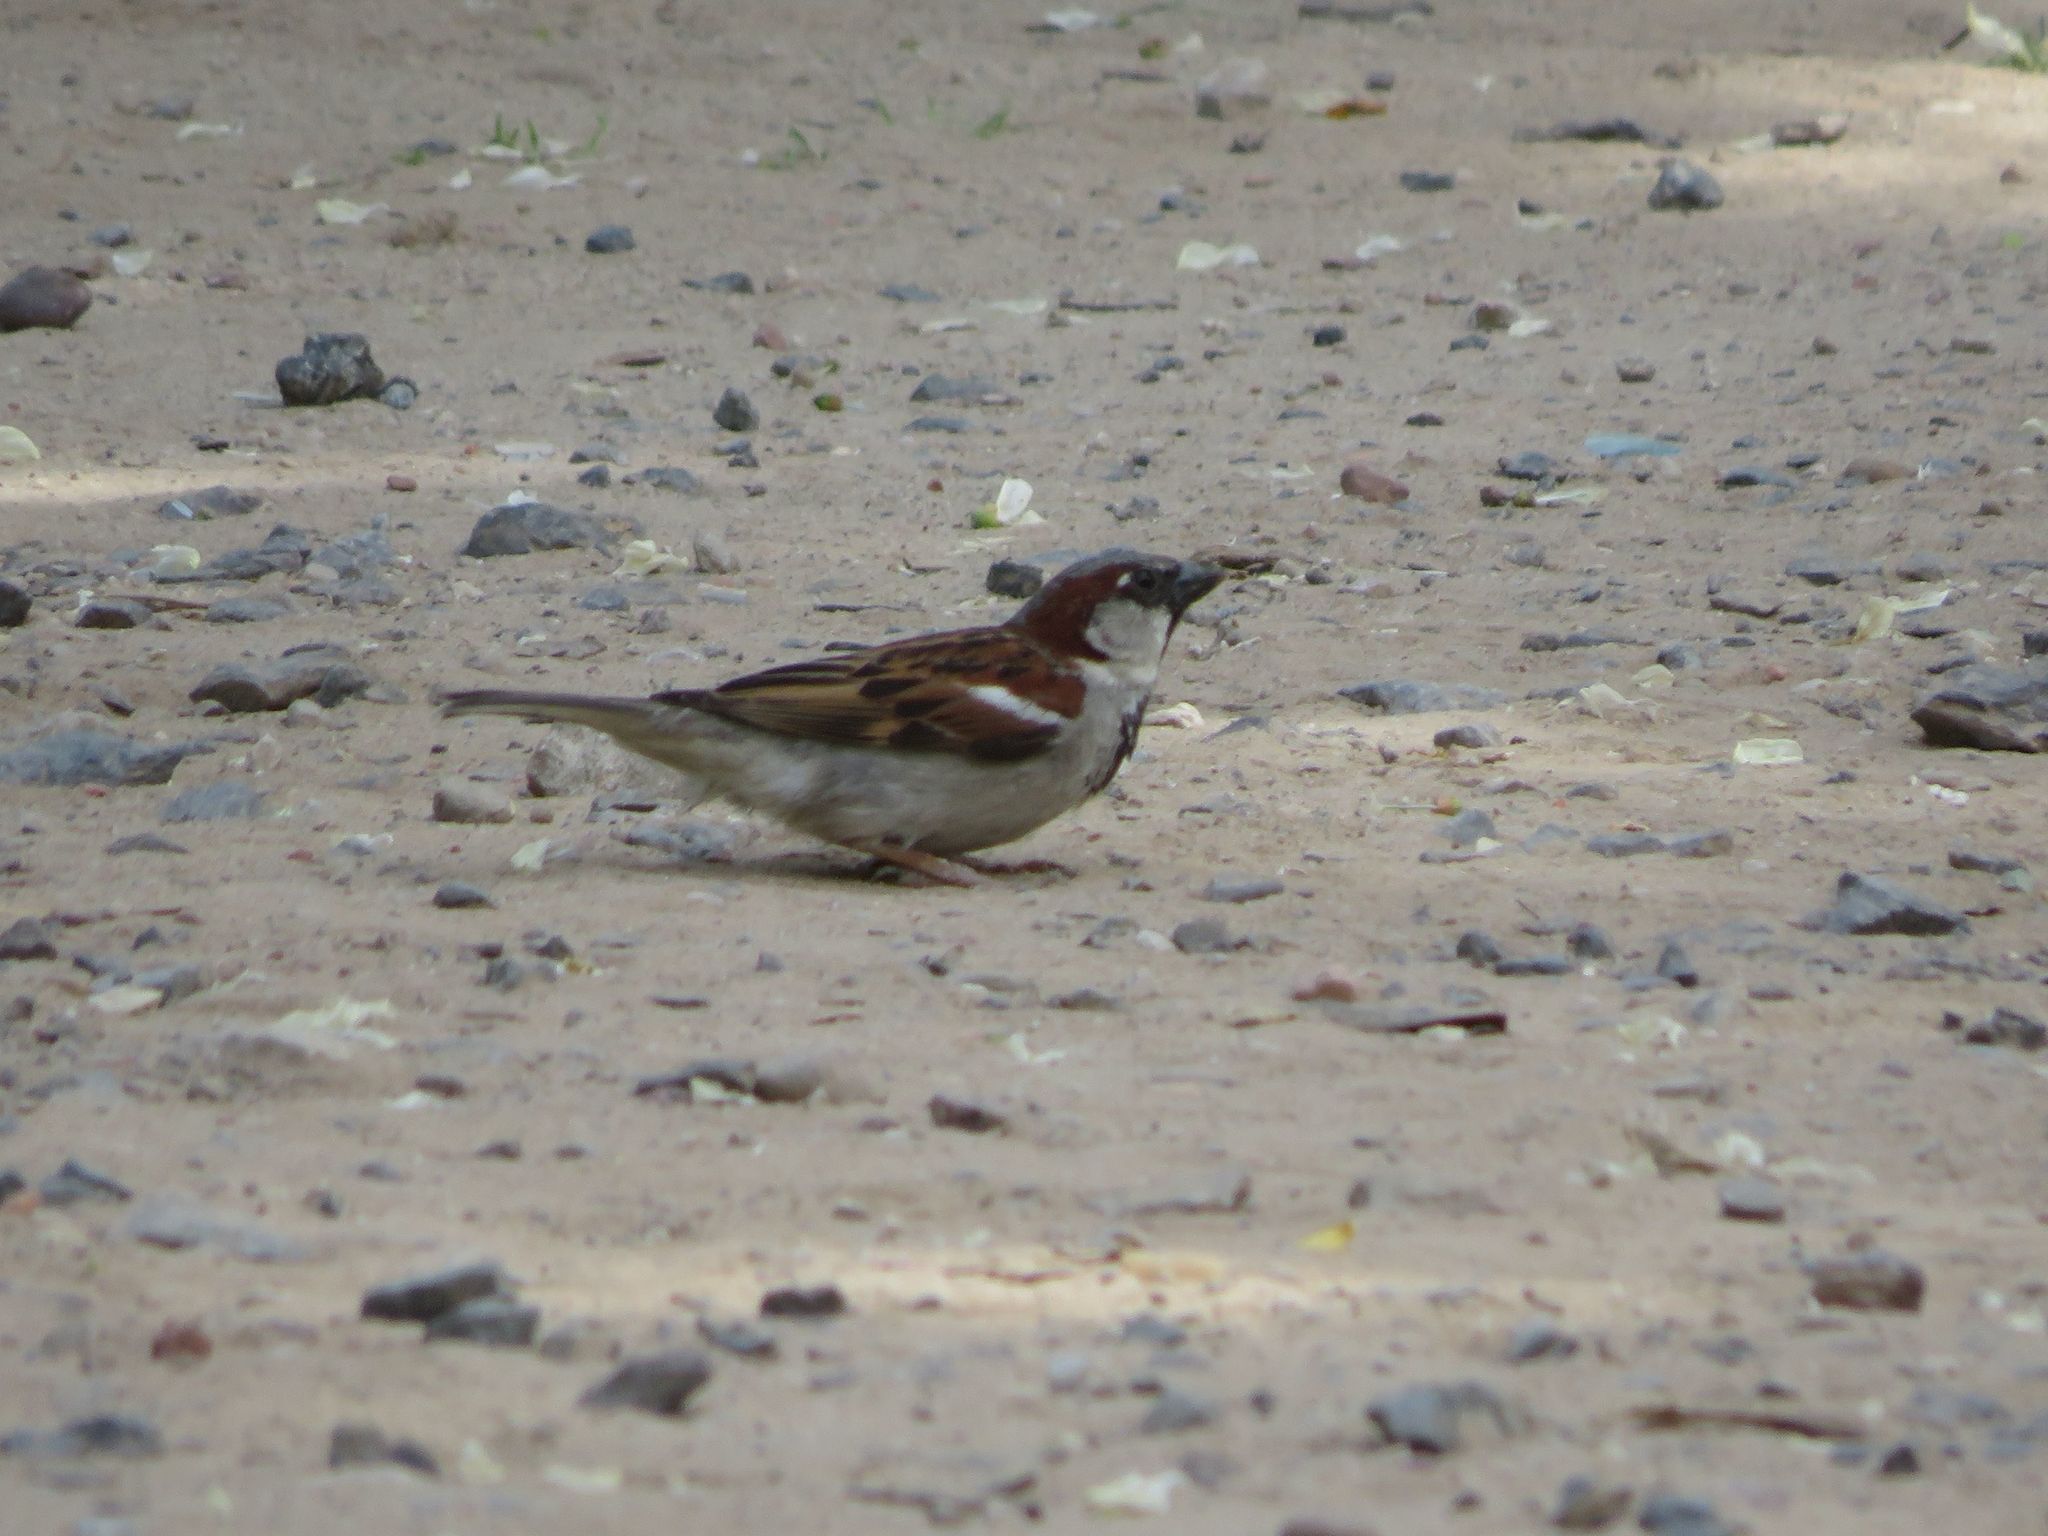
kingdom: Animalia
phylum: Chordata
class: Aves
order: Passeriformes
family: Passeridae
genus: Passer
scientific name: Passer domesticus
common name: House sparrow
